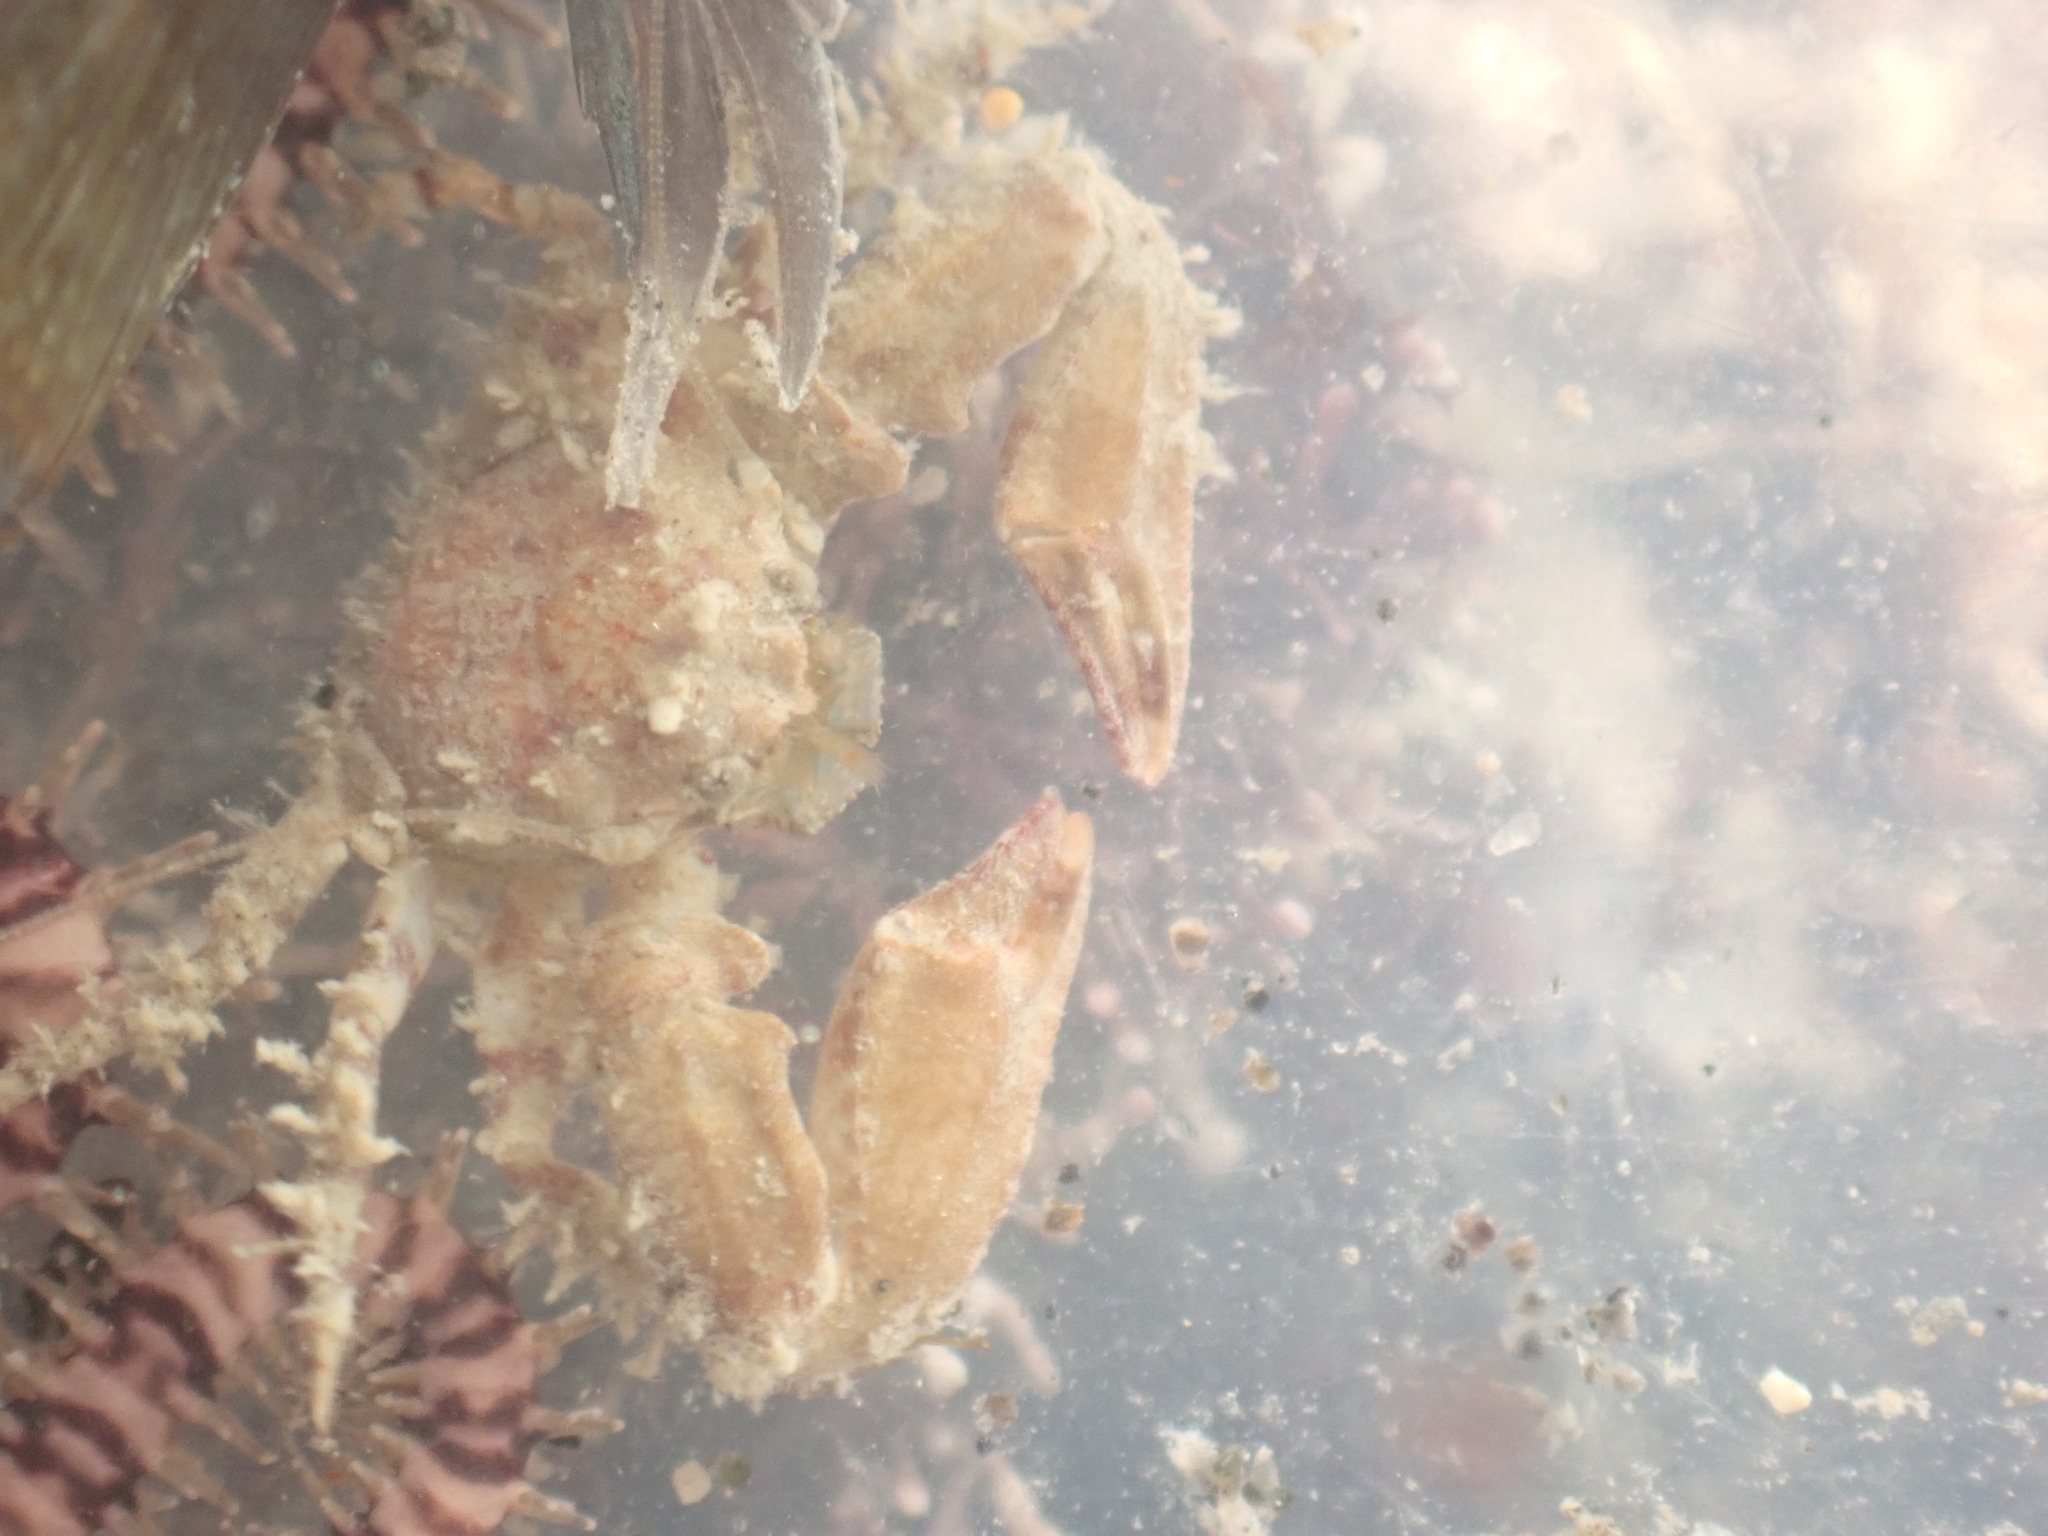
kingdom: Animalia
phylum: Arthropoda
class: Malacostraca
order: Decapoda
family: Porcellanidae
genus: Petrolisthes
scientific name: Petrolisthes novaezelandiae
